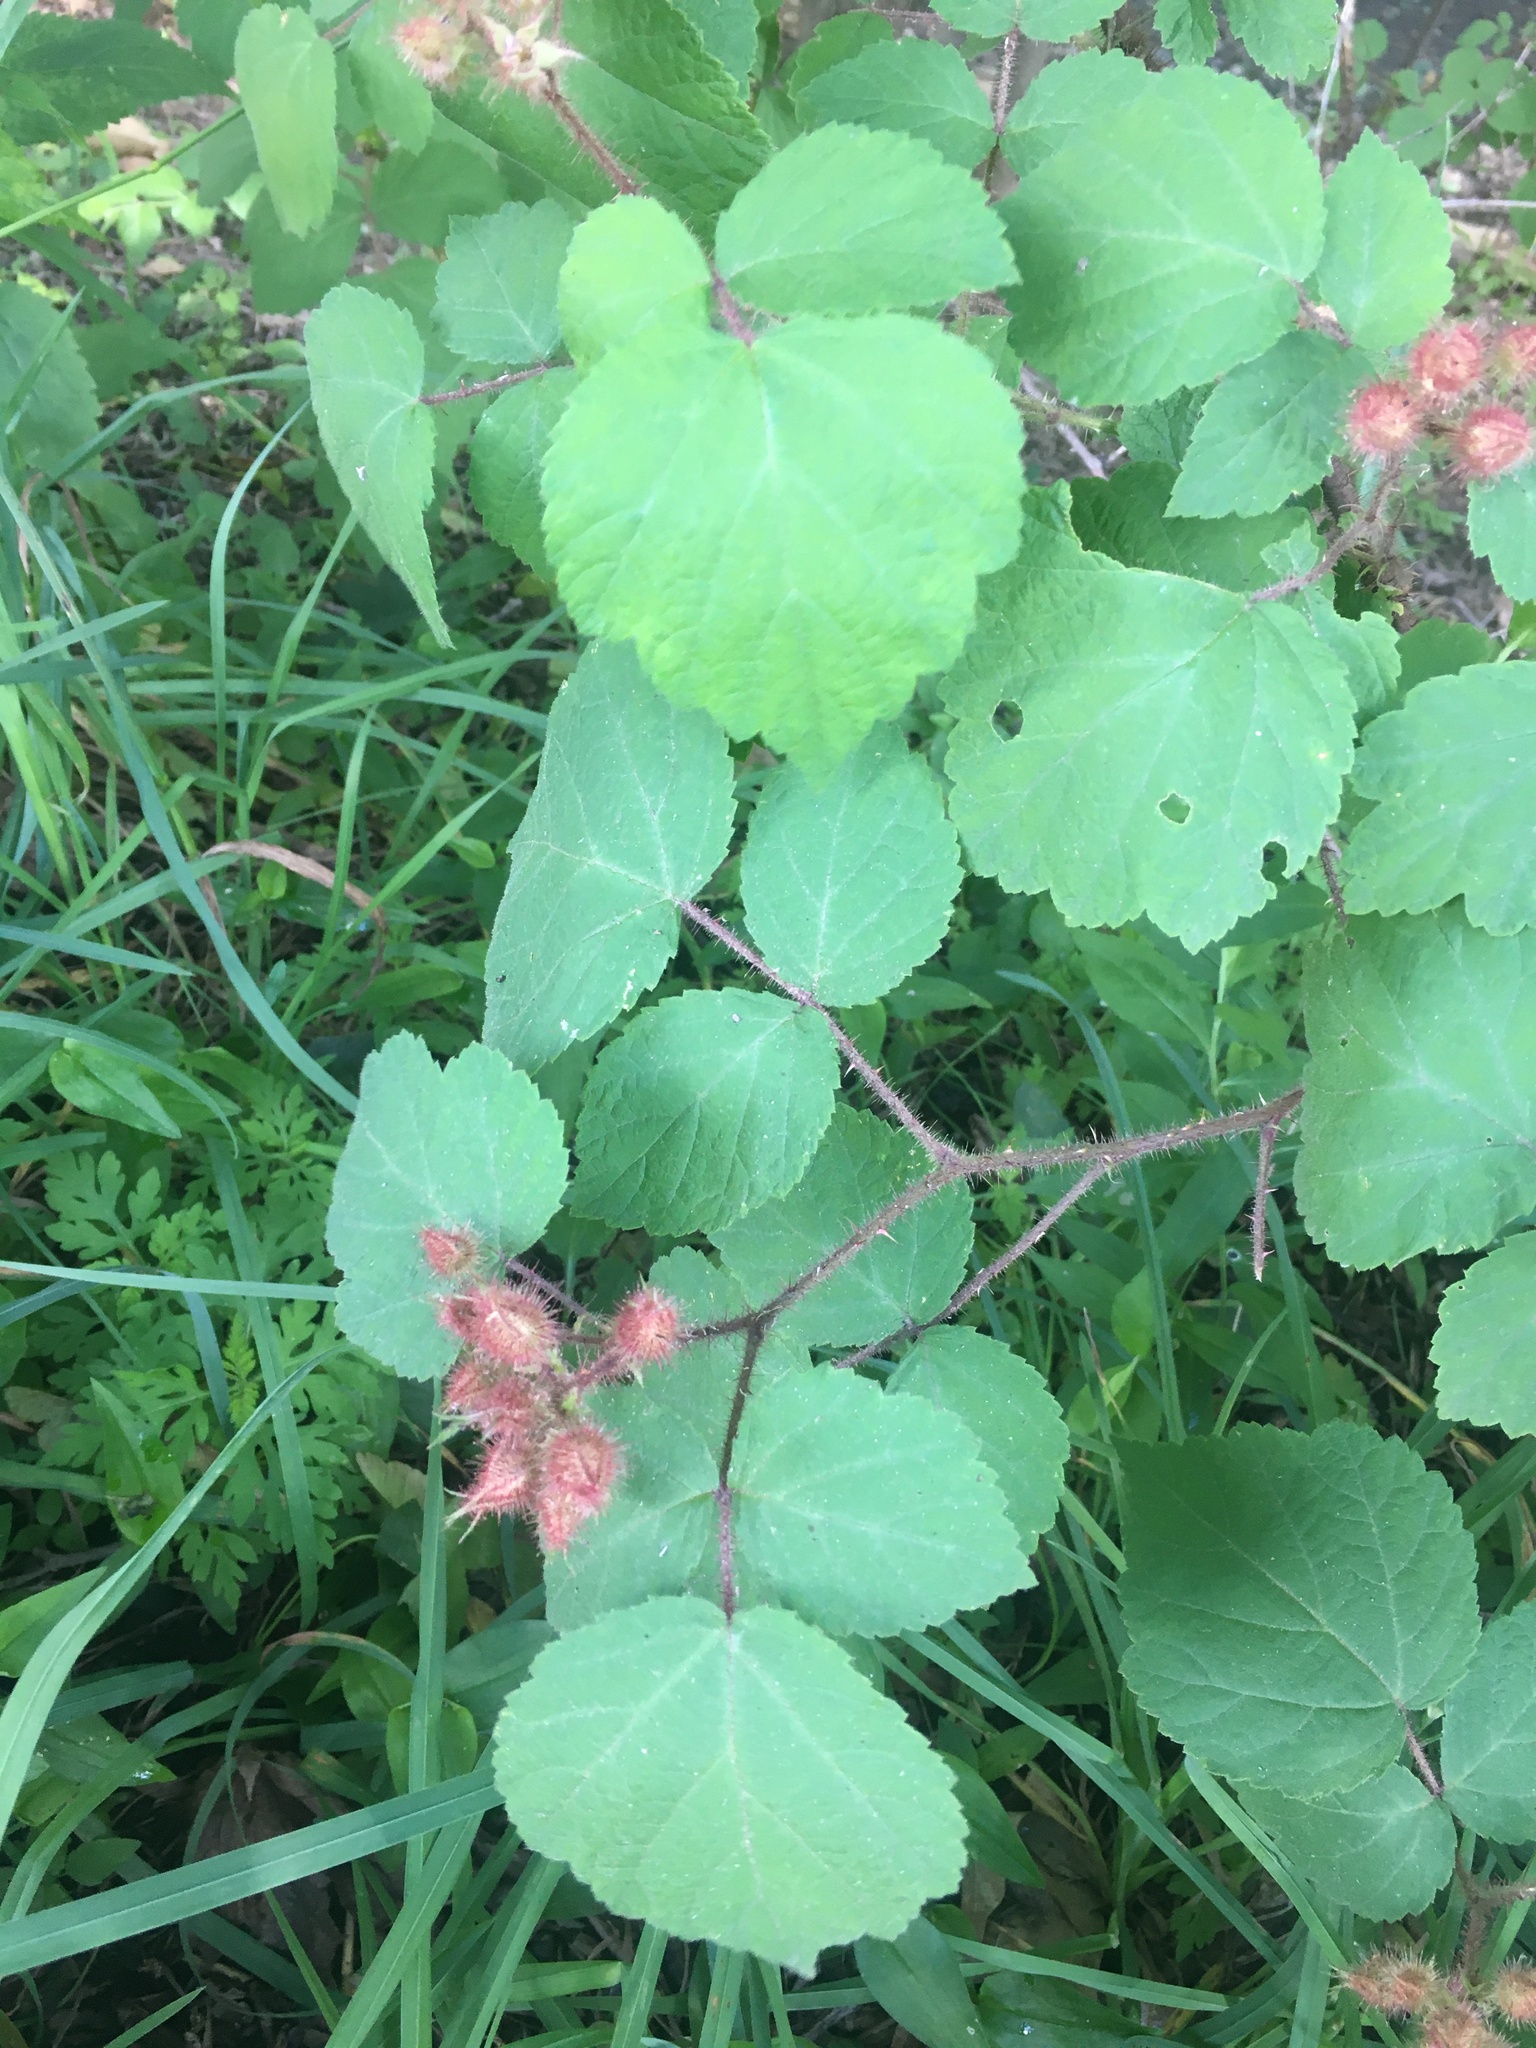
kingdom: Plantae
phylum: Tracheophyta
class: Magnoliopsida
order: Rosales
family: Rosaceae
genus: Rubus
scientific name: Rubus phoenicolasius
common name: Japanese wineberry
